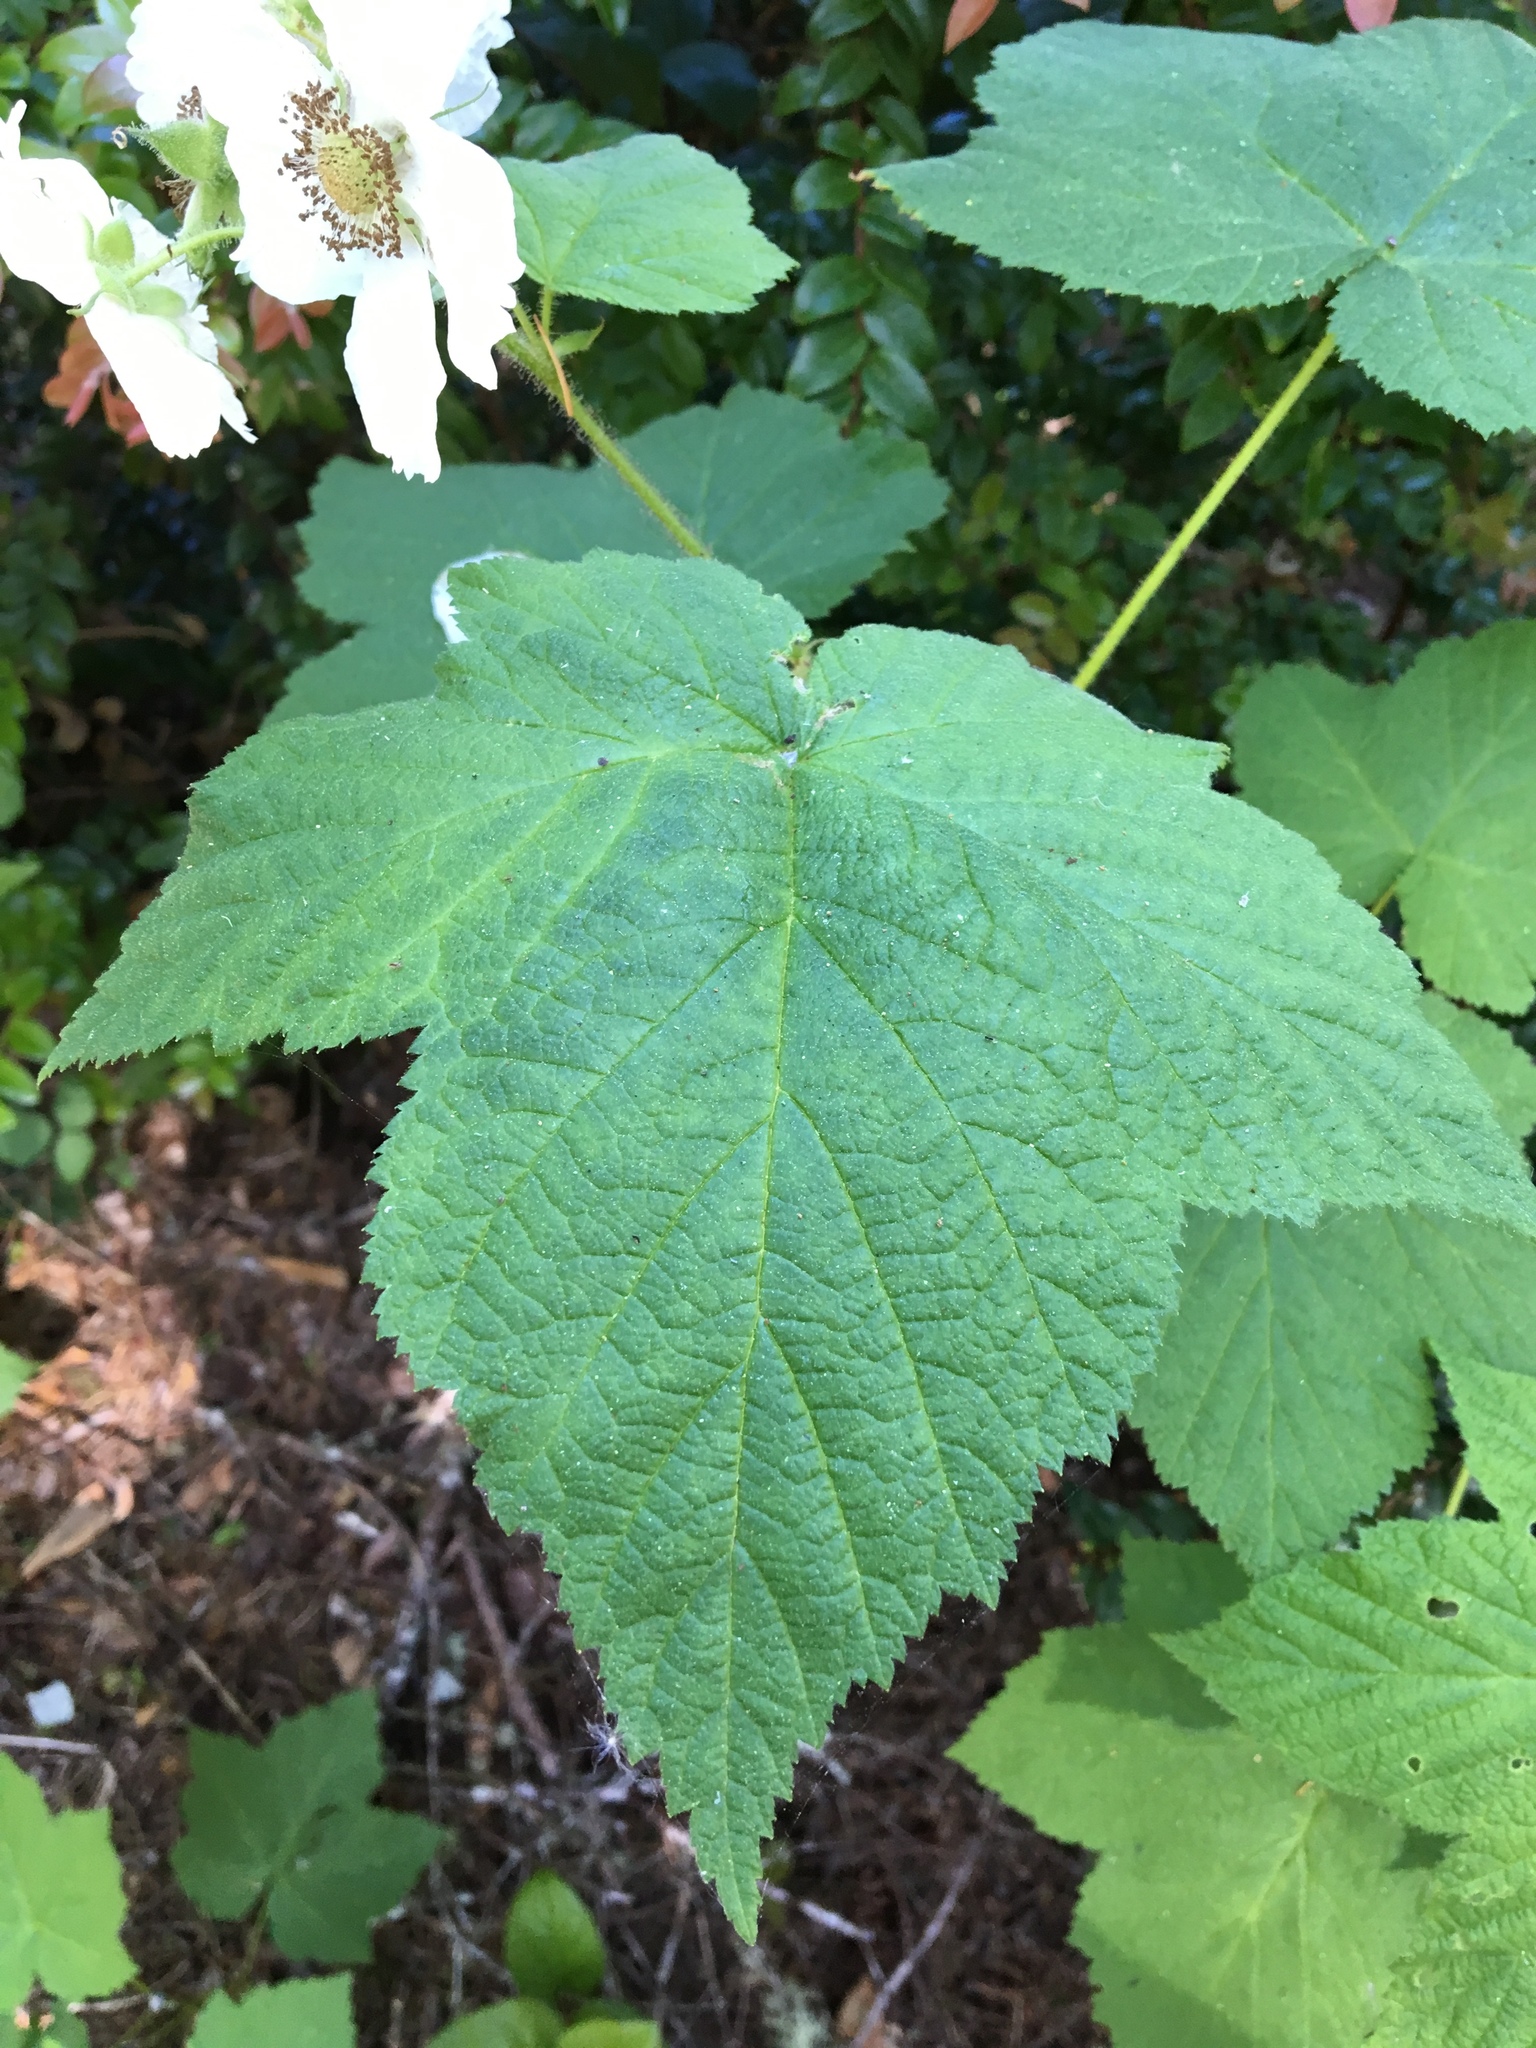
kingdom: Plantae
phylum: Tracheophyta
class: Magnoliopsida
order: Rosales
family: Rosaceae
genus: Rubus
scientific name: Rubus parviflorus
